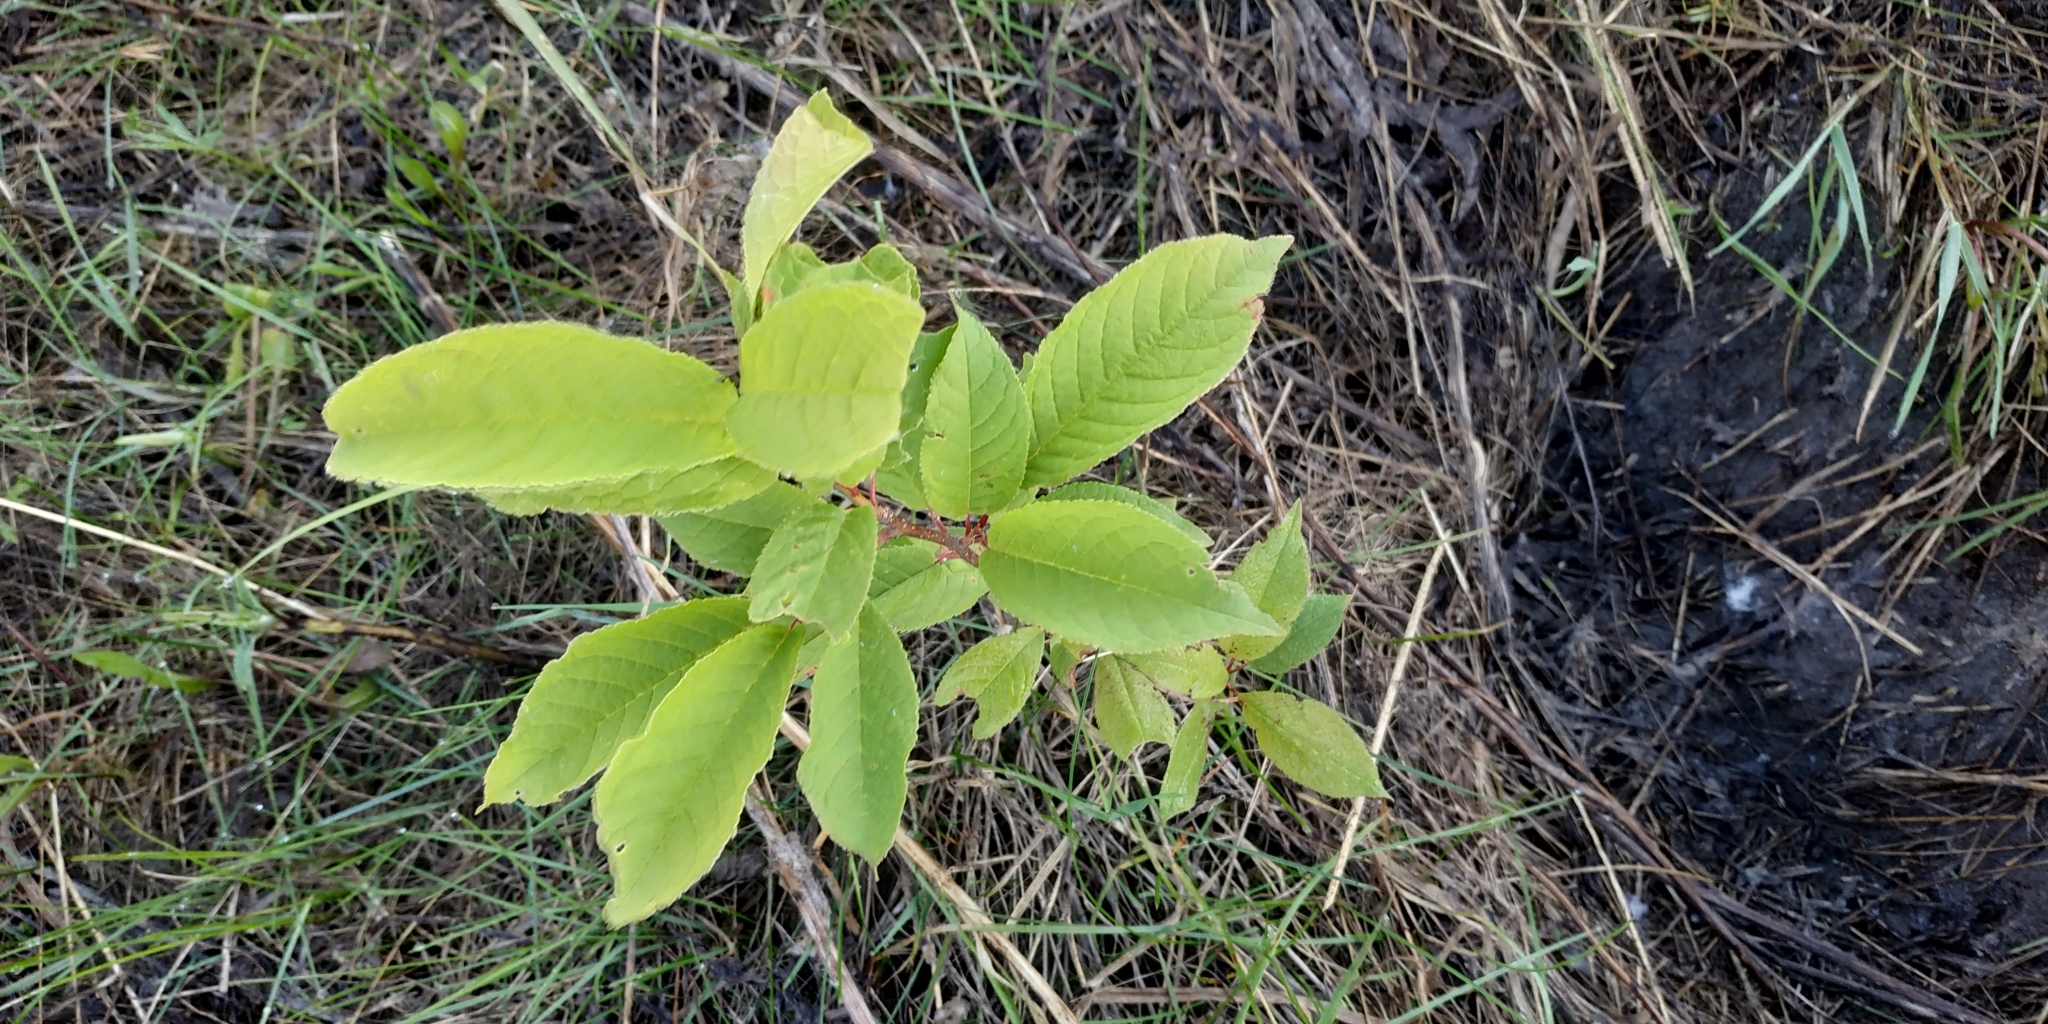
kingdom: Plantae
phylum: Tracheophyta
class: Magnoliopsida
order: Rosales
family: Rosaceae
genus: Prunus
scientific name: Prunus padus
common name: Bird cherry
